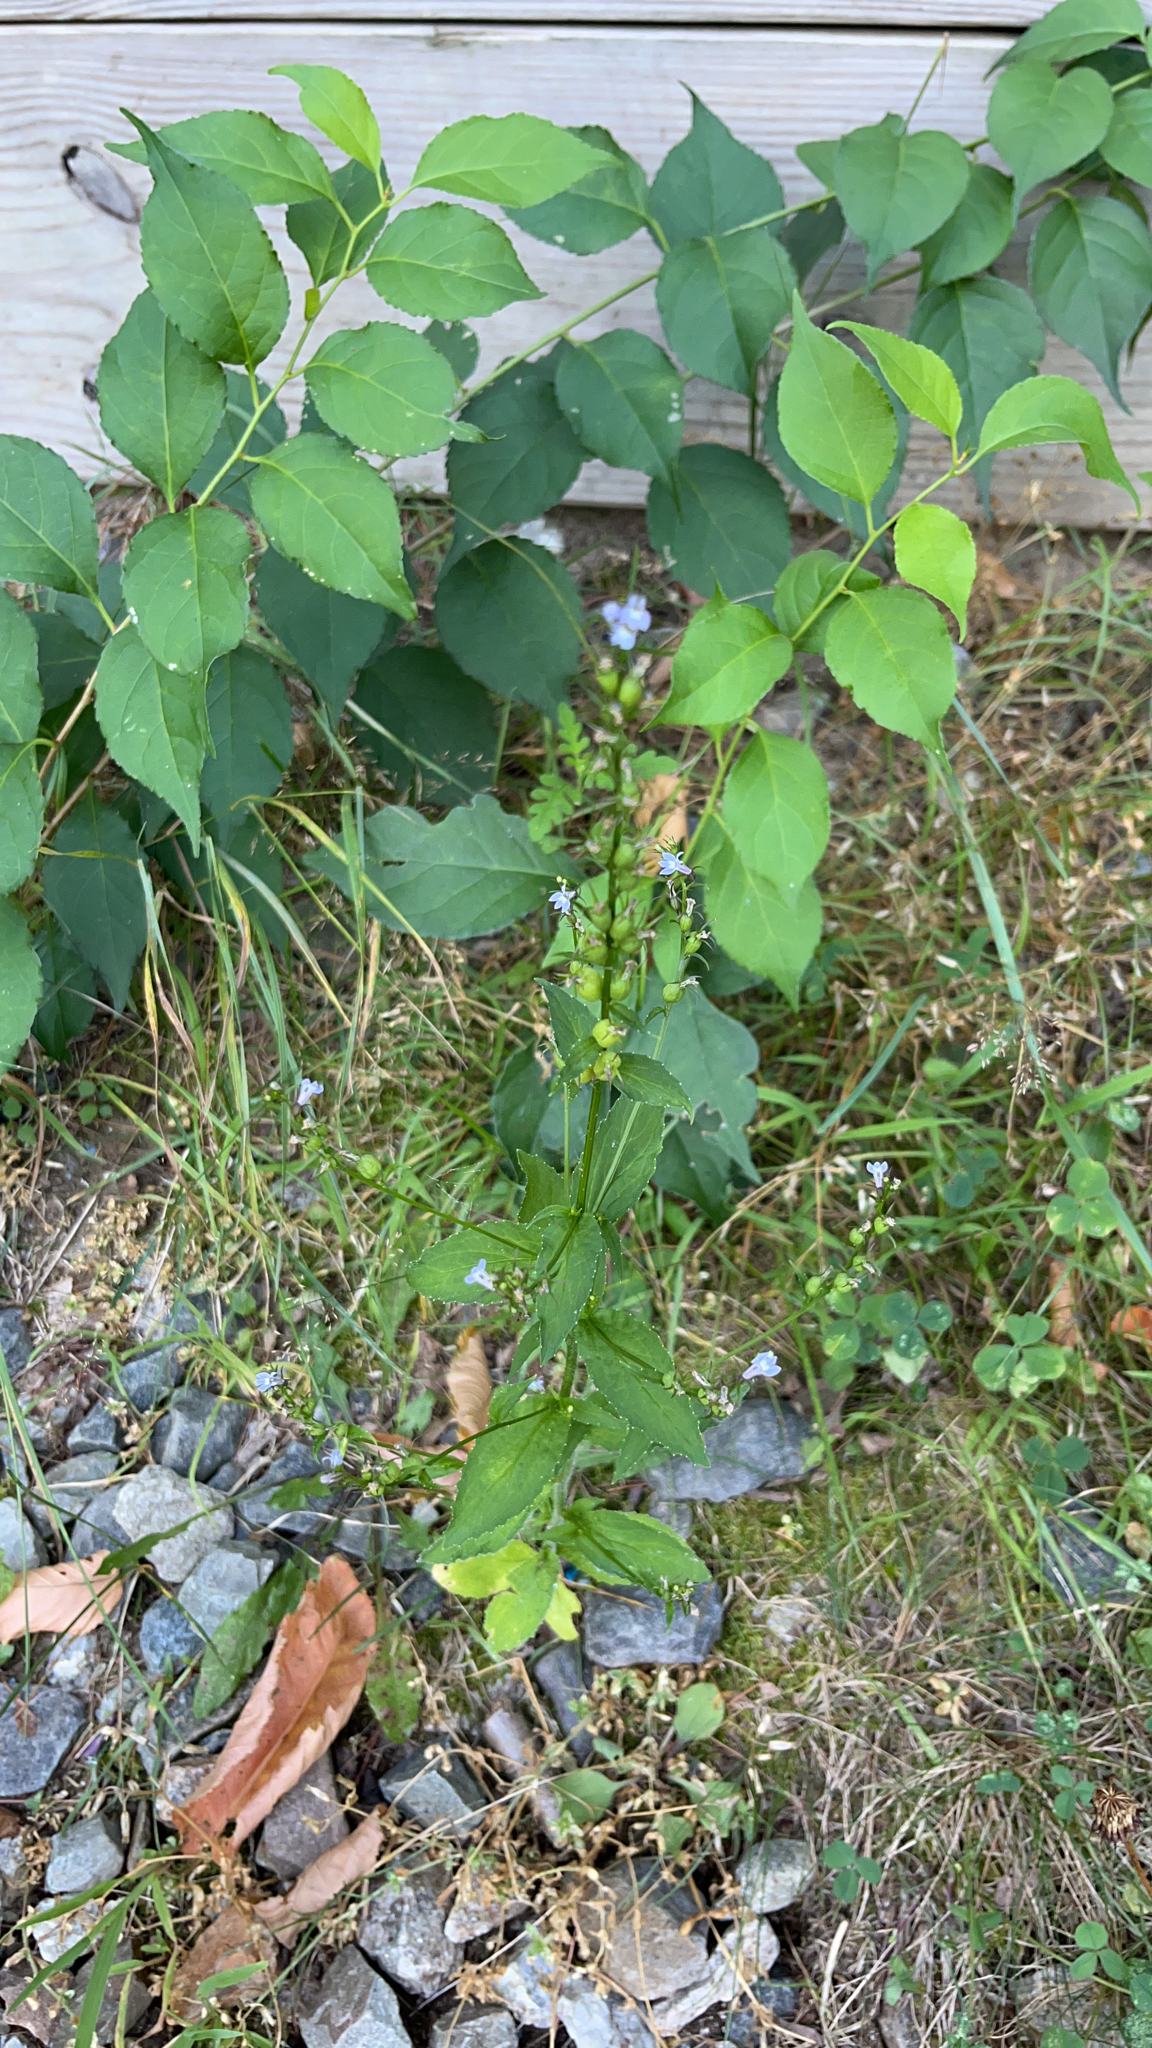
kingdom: Plantae
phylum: Tracheophyta
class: Magnoliopsida
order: Asterales
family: Campanulaceae
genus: Lobelia
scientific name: Lobelia inflata
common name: Indian tobacco
